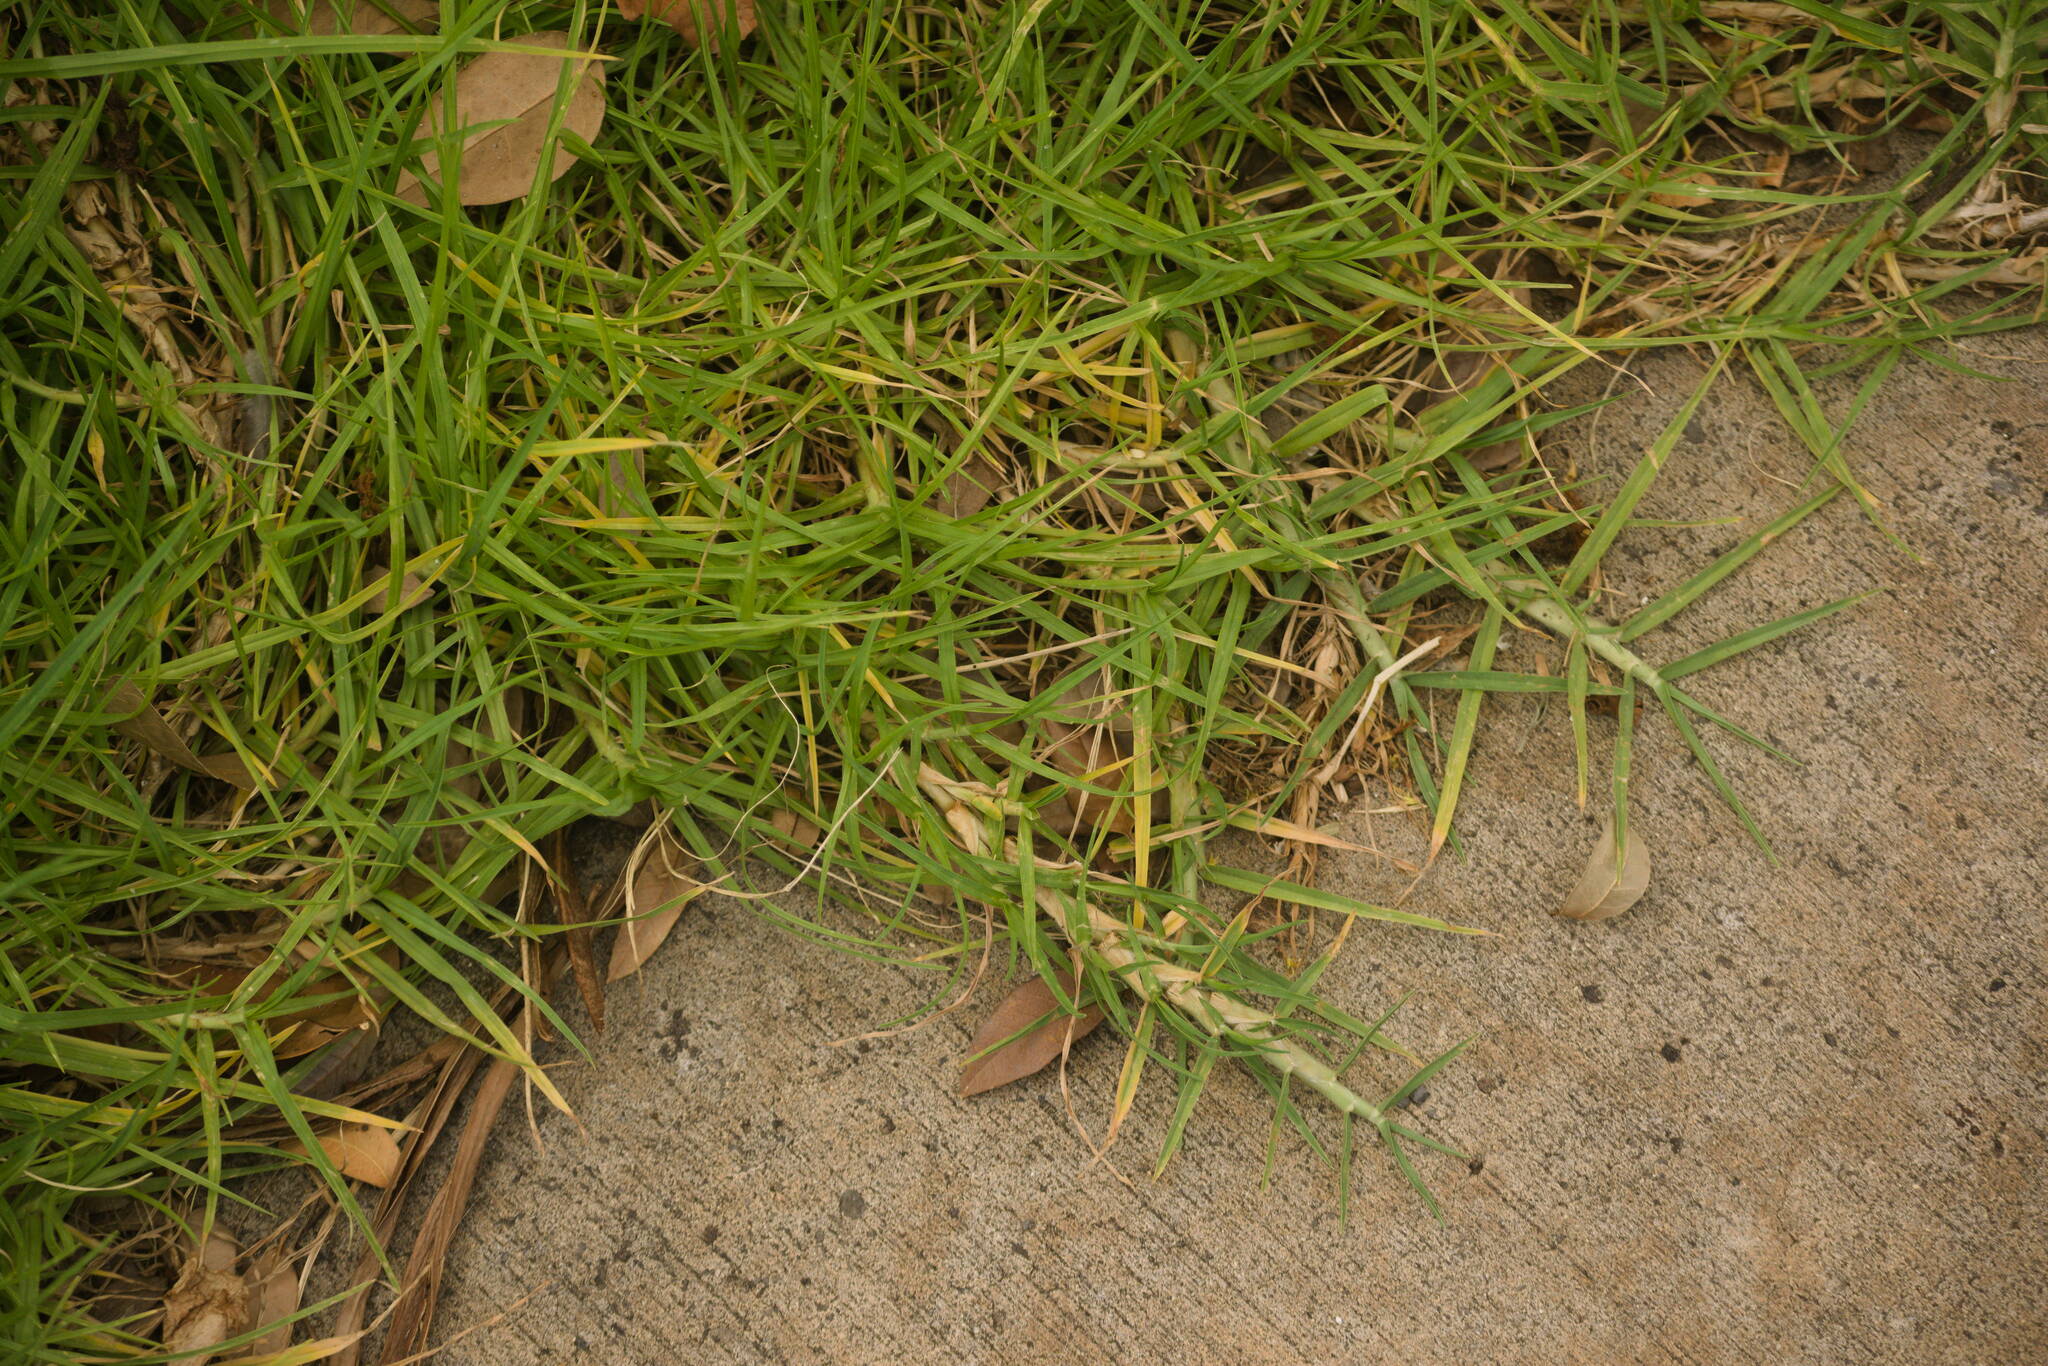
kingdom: Plantae
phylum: Tracheophyta
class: Liliopsida
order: Poales
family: Poaceae
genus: Cenchrus
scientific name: Cenchrus clandestinus
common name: Kikuyugrass
